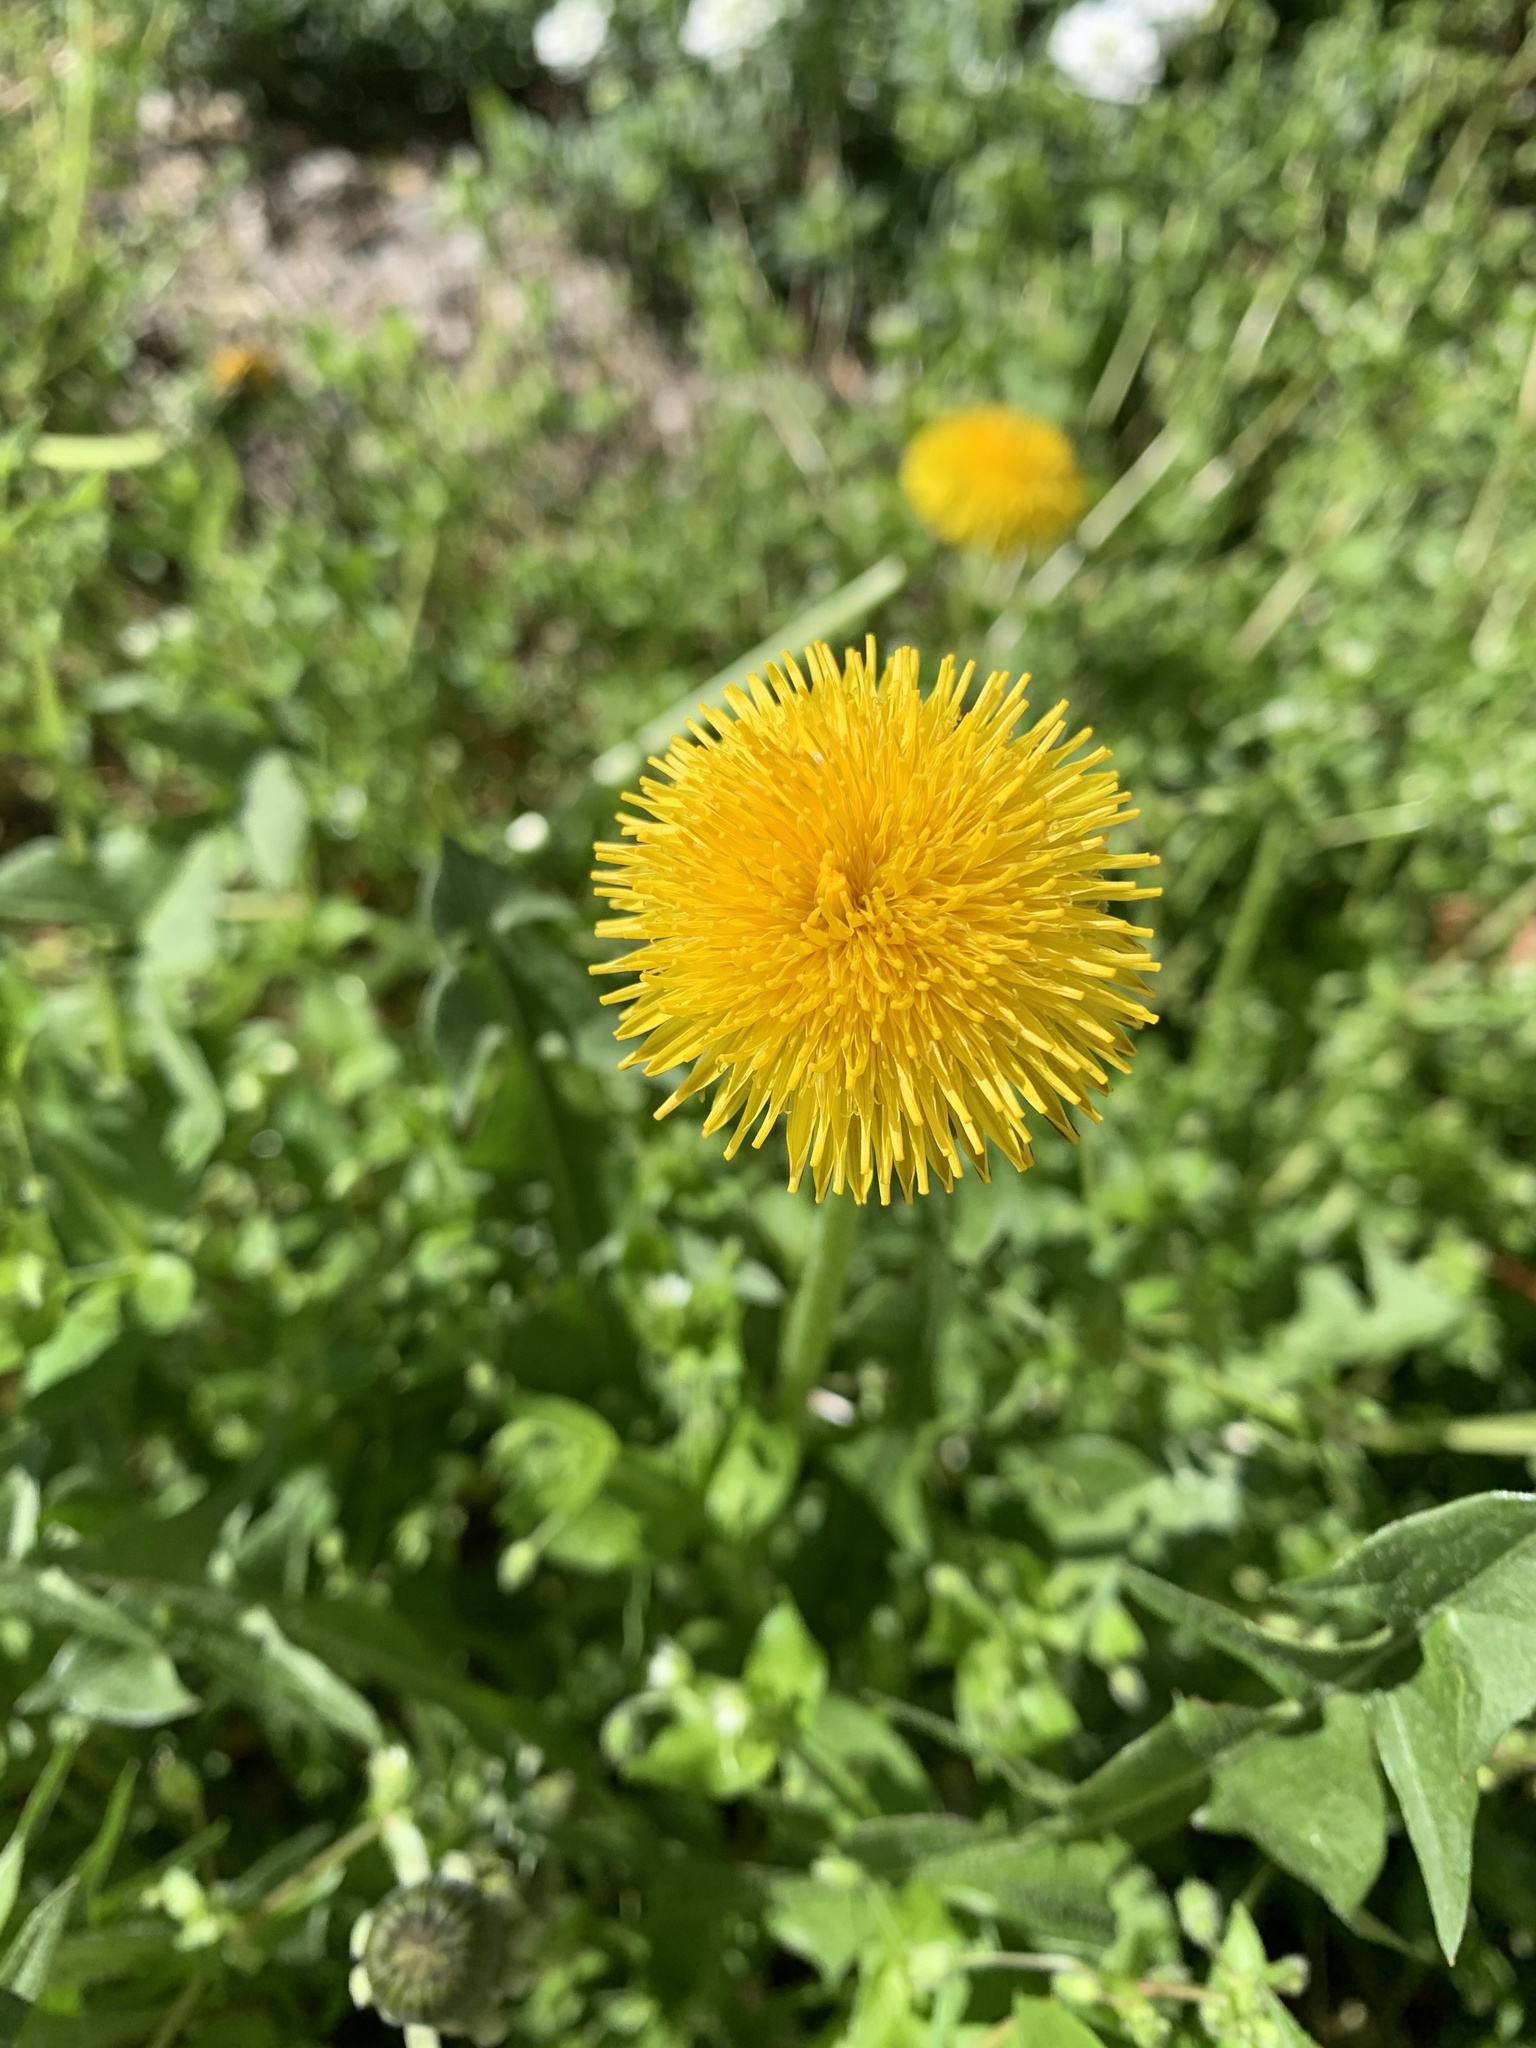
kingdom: Plantae
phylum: Tracheophyta
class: Magnoliopsida
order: Asterales
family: Asteraceae
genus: Taraxacum
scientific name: Taraxacum
